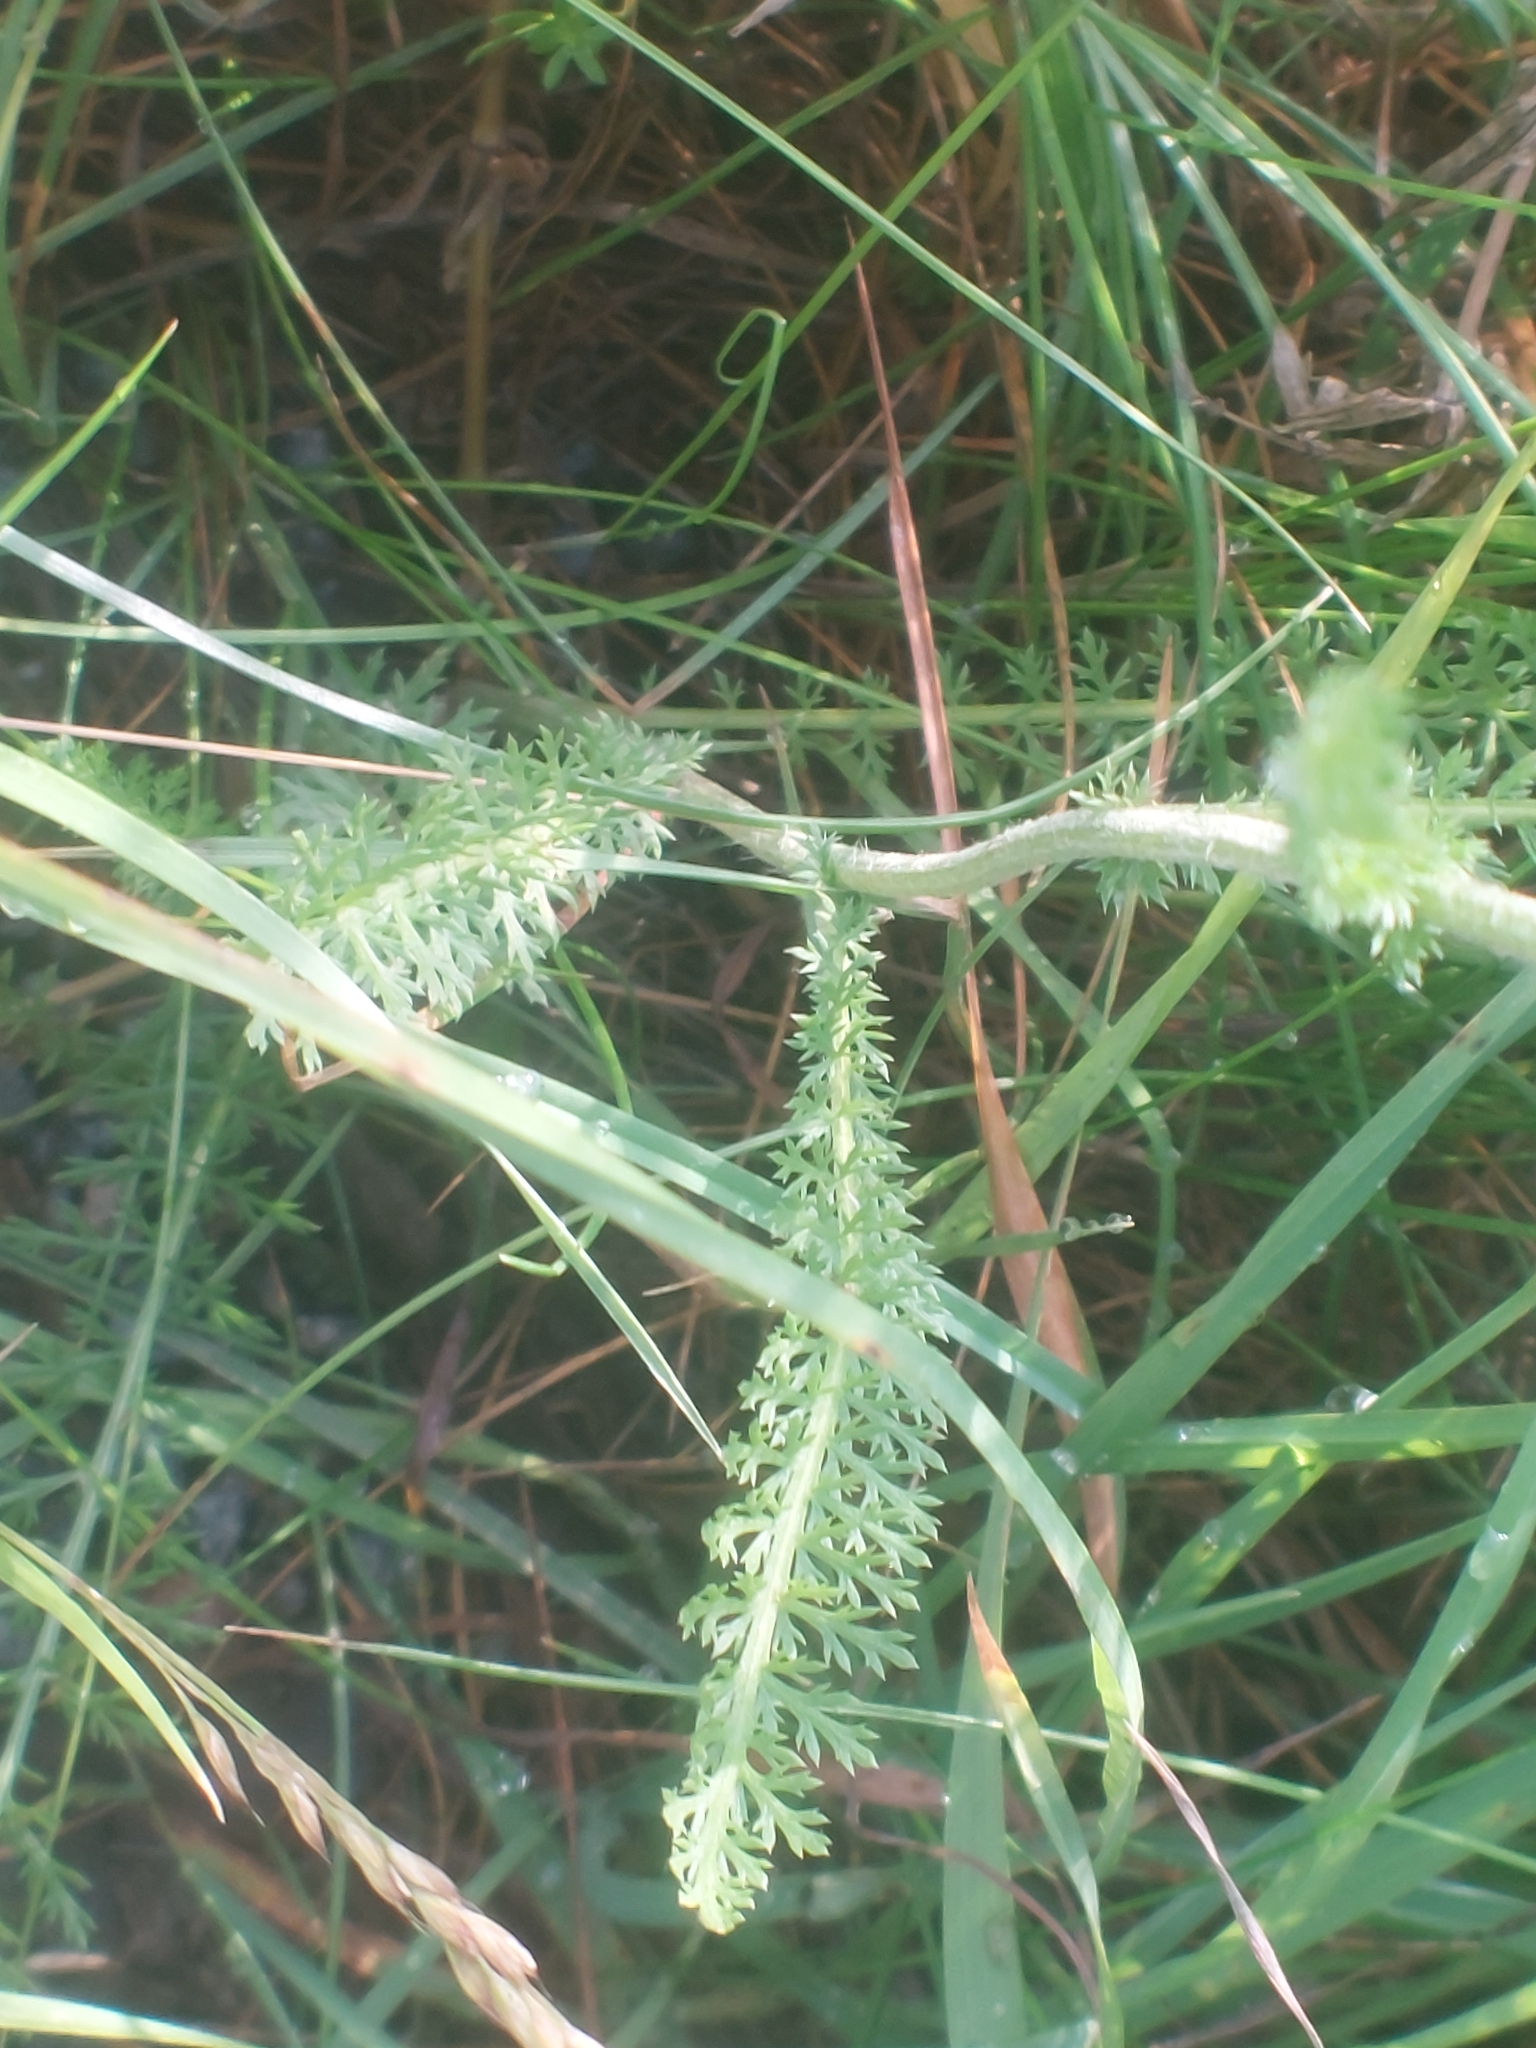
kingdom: Plantae
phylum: Tracheophyta
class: Magnoliopsida
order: Asterales
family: Asteraceae
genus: Achillea
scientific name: Achillea millefolium
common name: Yarrow
